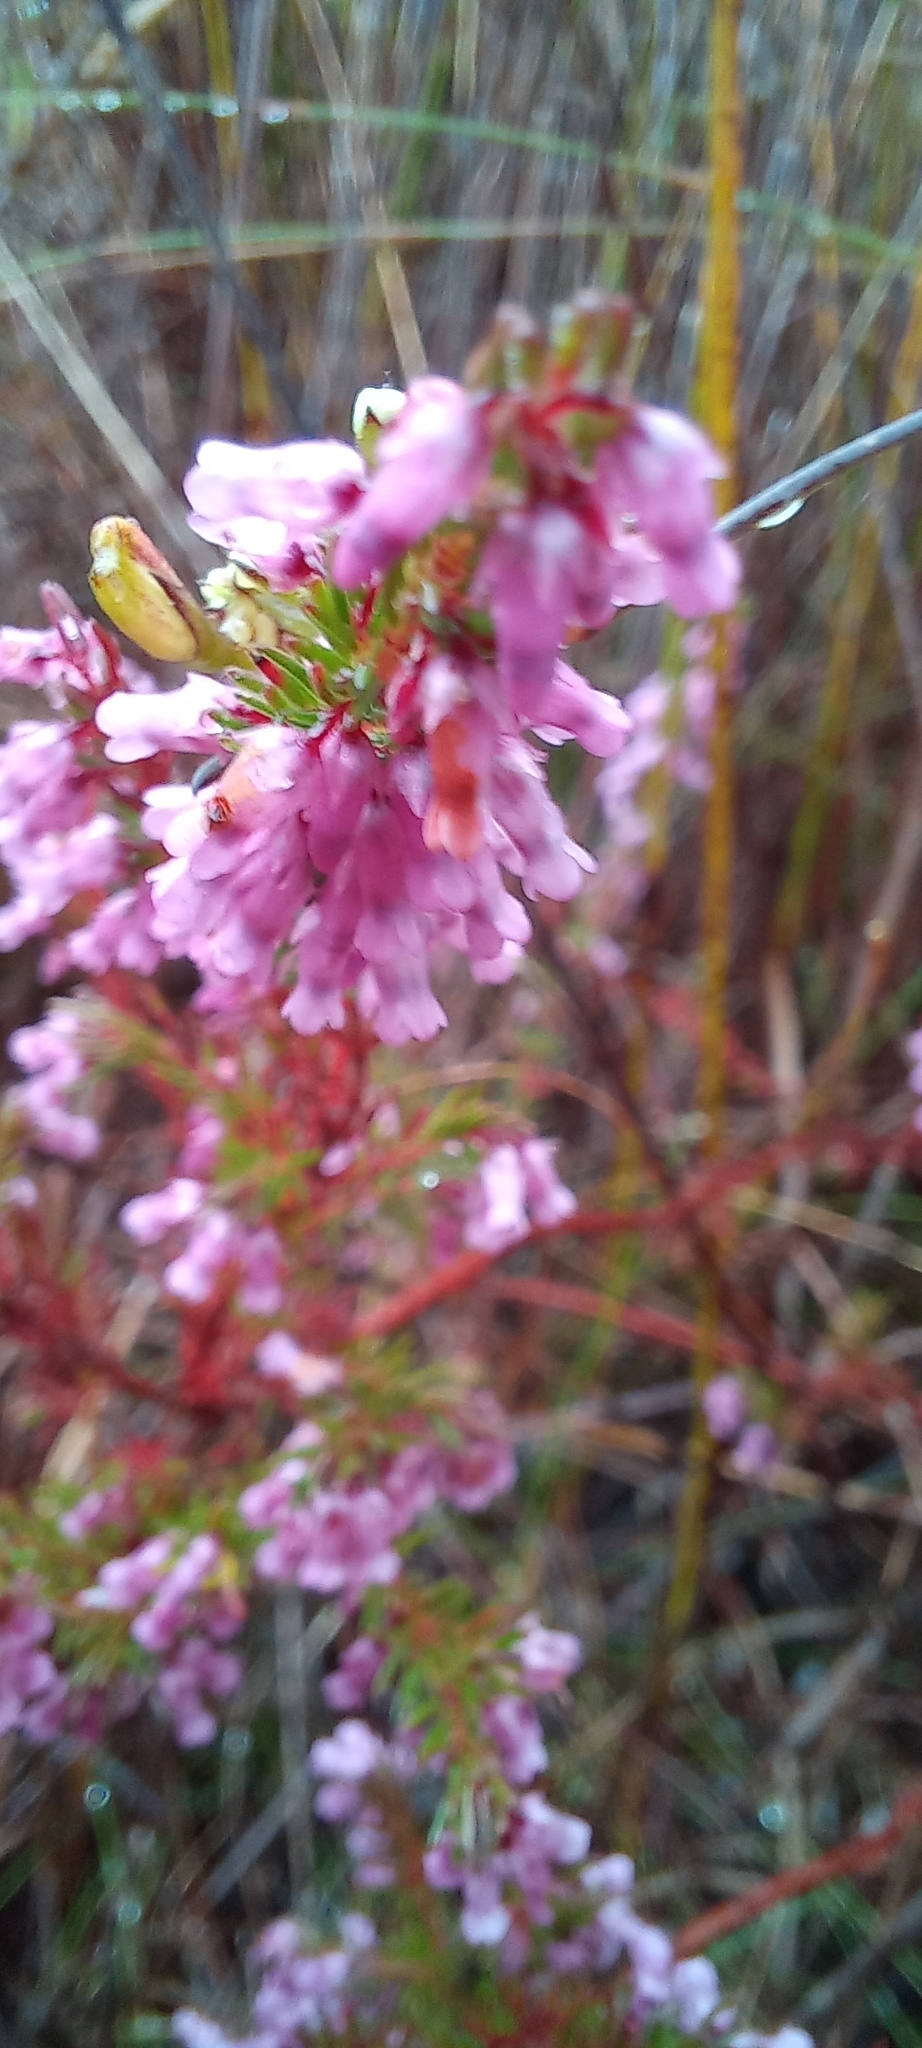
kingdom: Plantae
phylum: Tracheophyta
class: Magnoliopsida
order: Ericales
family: Ericaceae
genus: Erica
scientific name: Erica intervallaris
